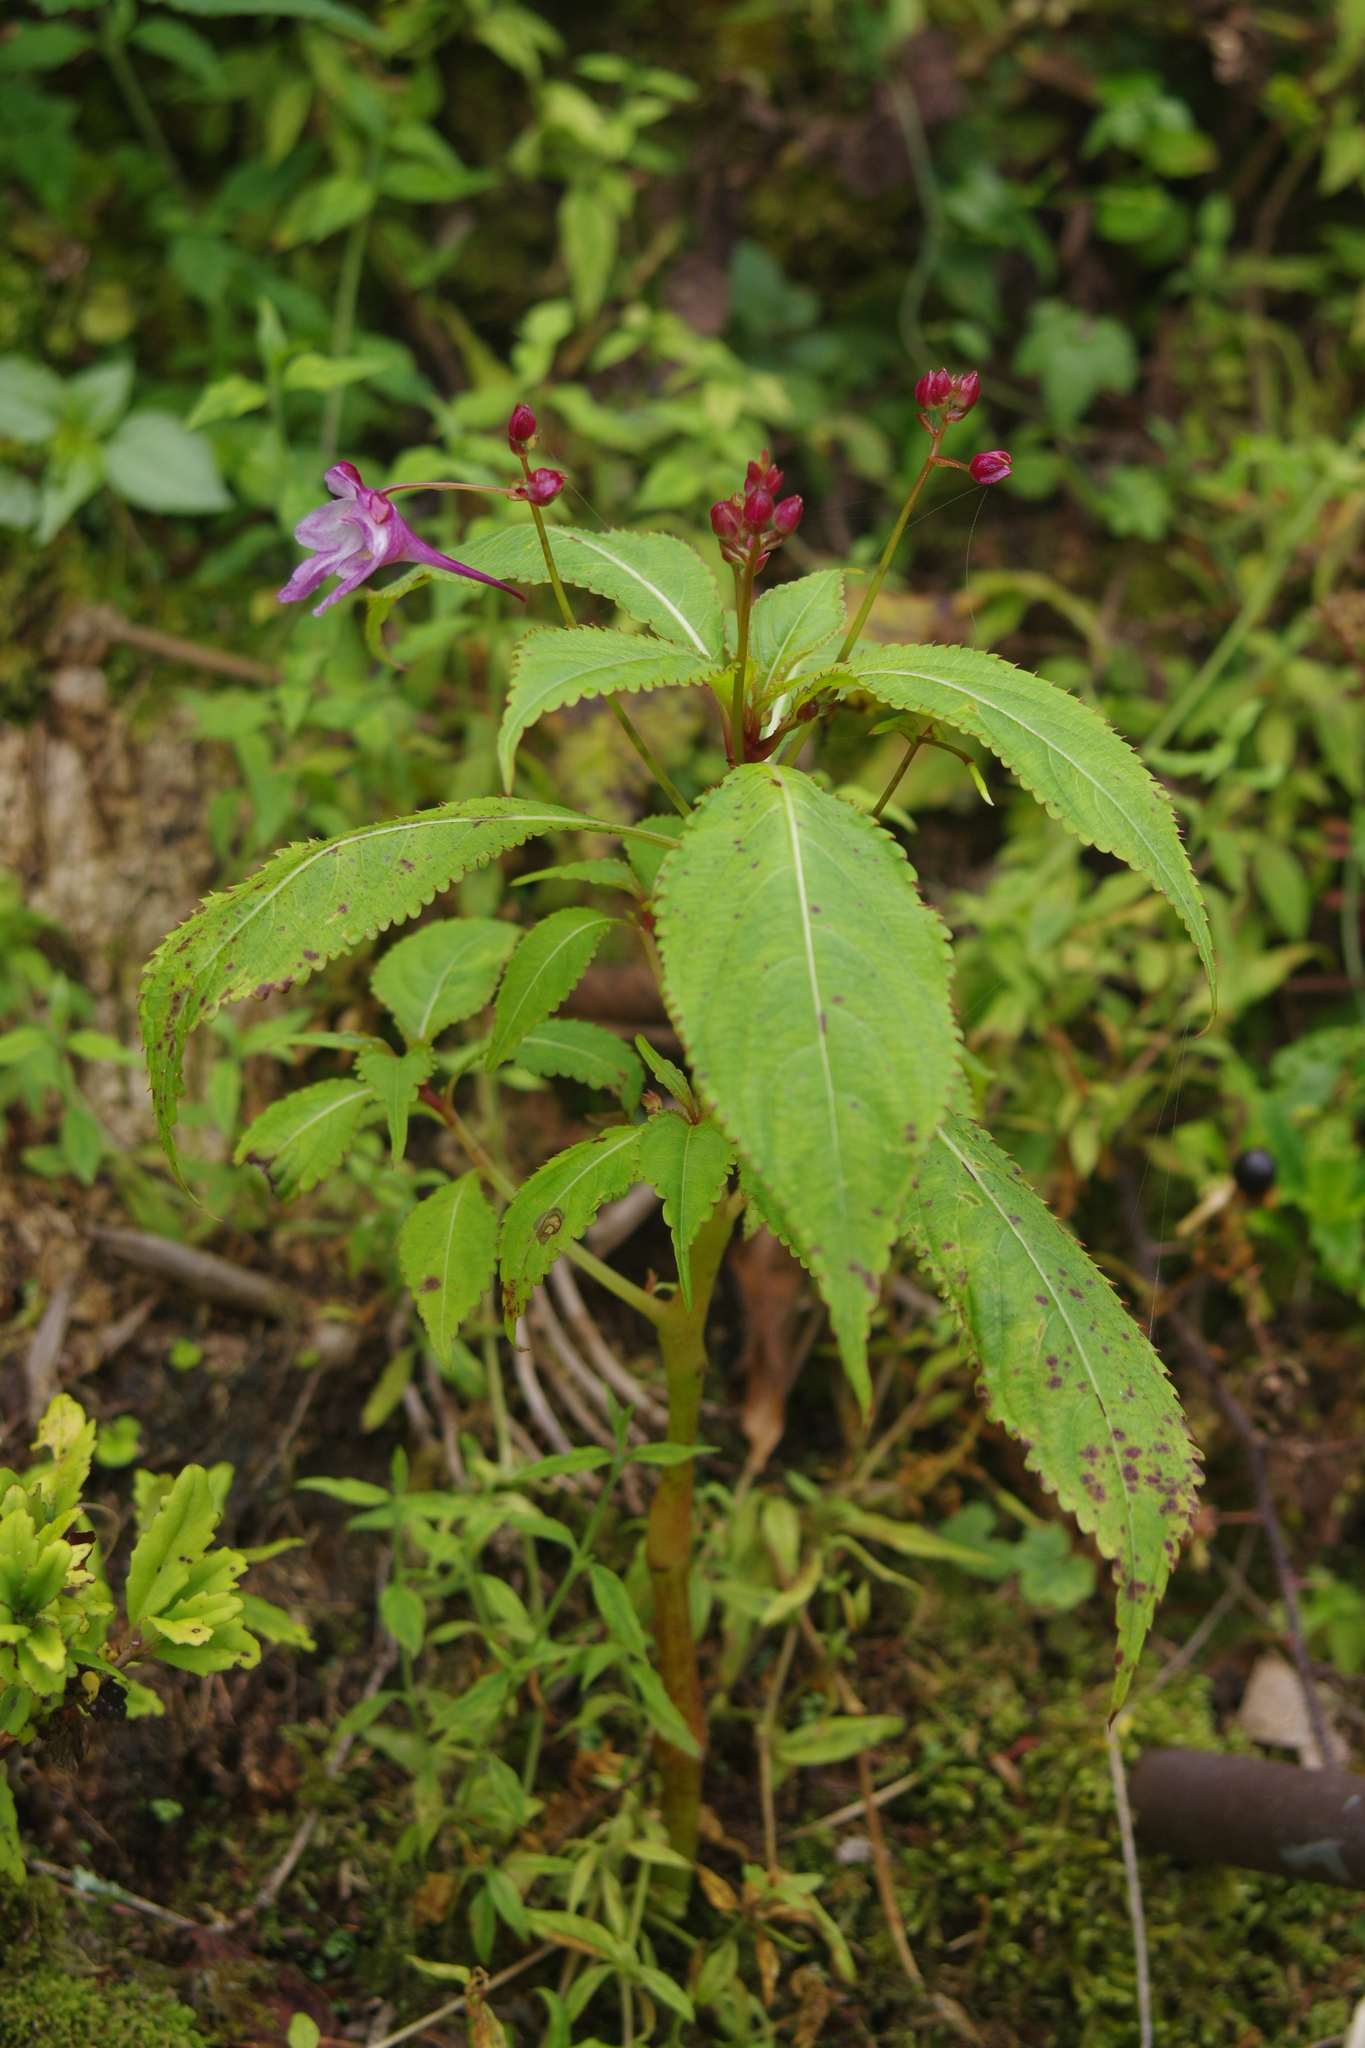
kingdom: Plantae
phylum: Tracheophyta
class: Magnoliopsida
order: Ericales
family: Balsaminaceae
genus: Impatiens
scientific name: Impatiens devolii
